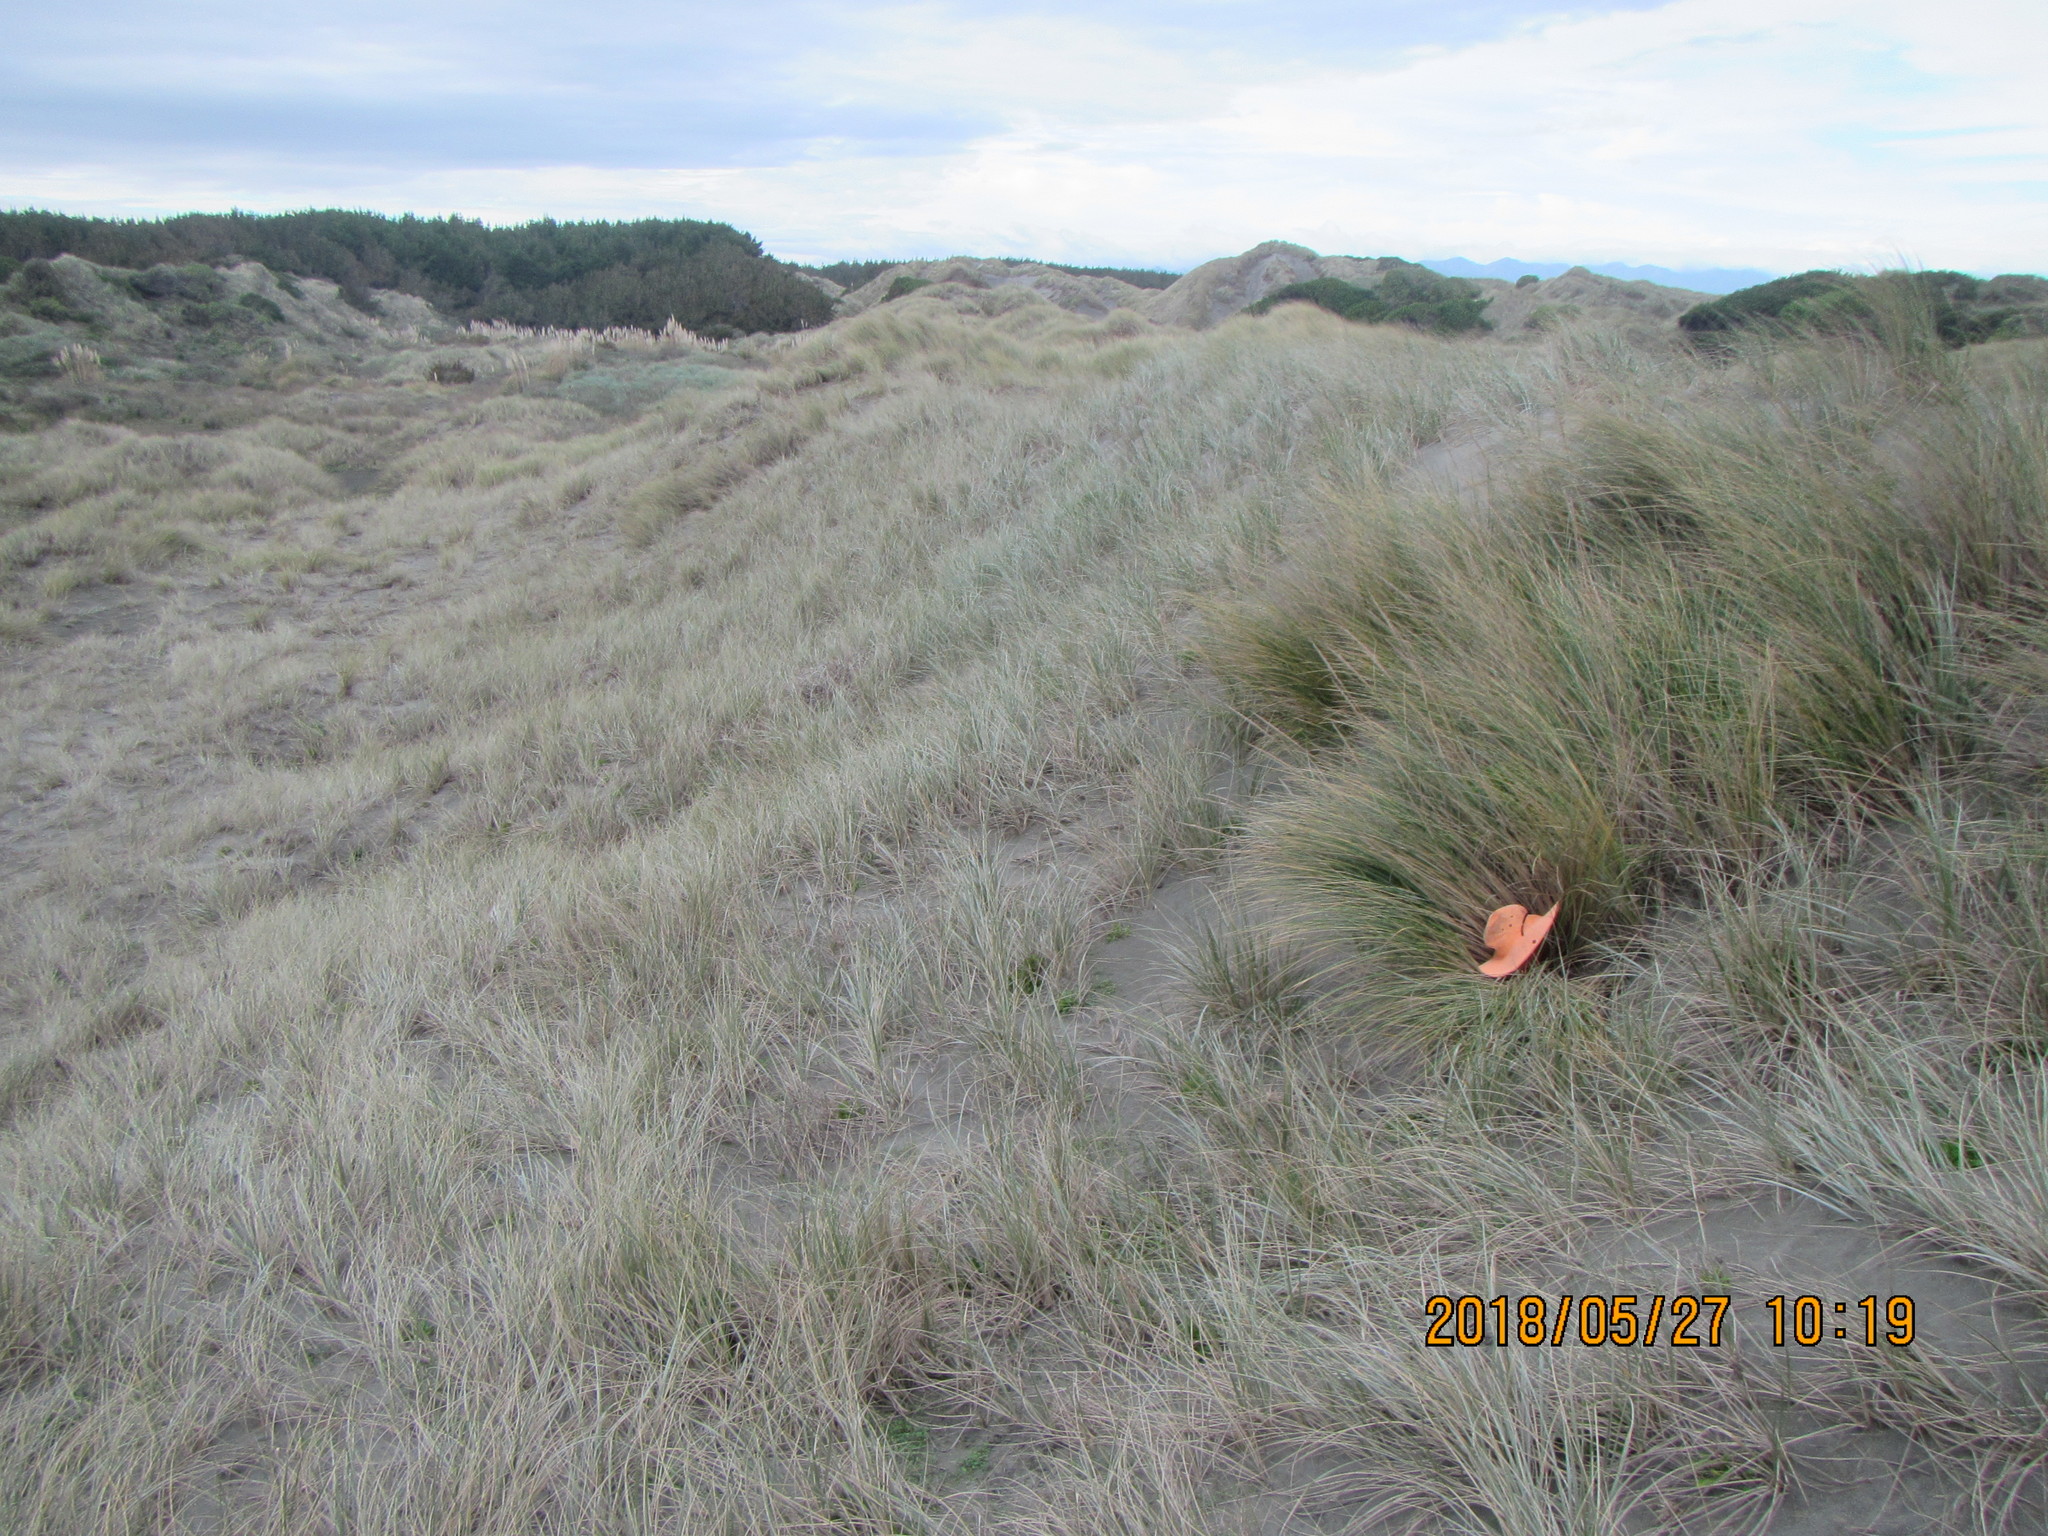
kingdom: Animalia
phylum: Arthropoda
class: Arachnida
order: Araneae
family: Thomisidae
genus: Sidymella
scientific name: Sidymella trapezia
